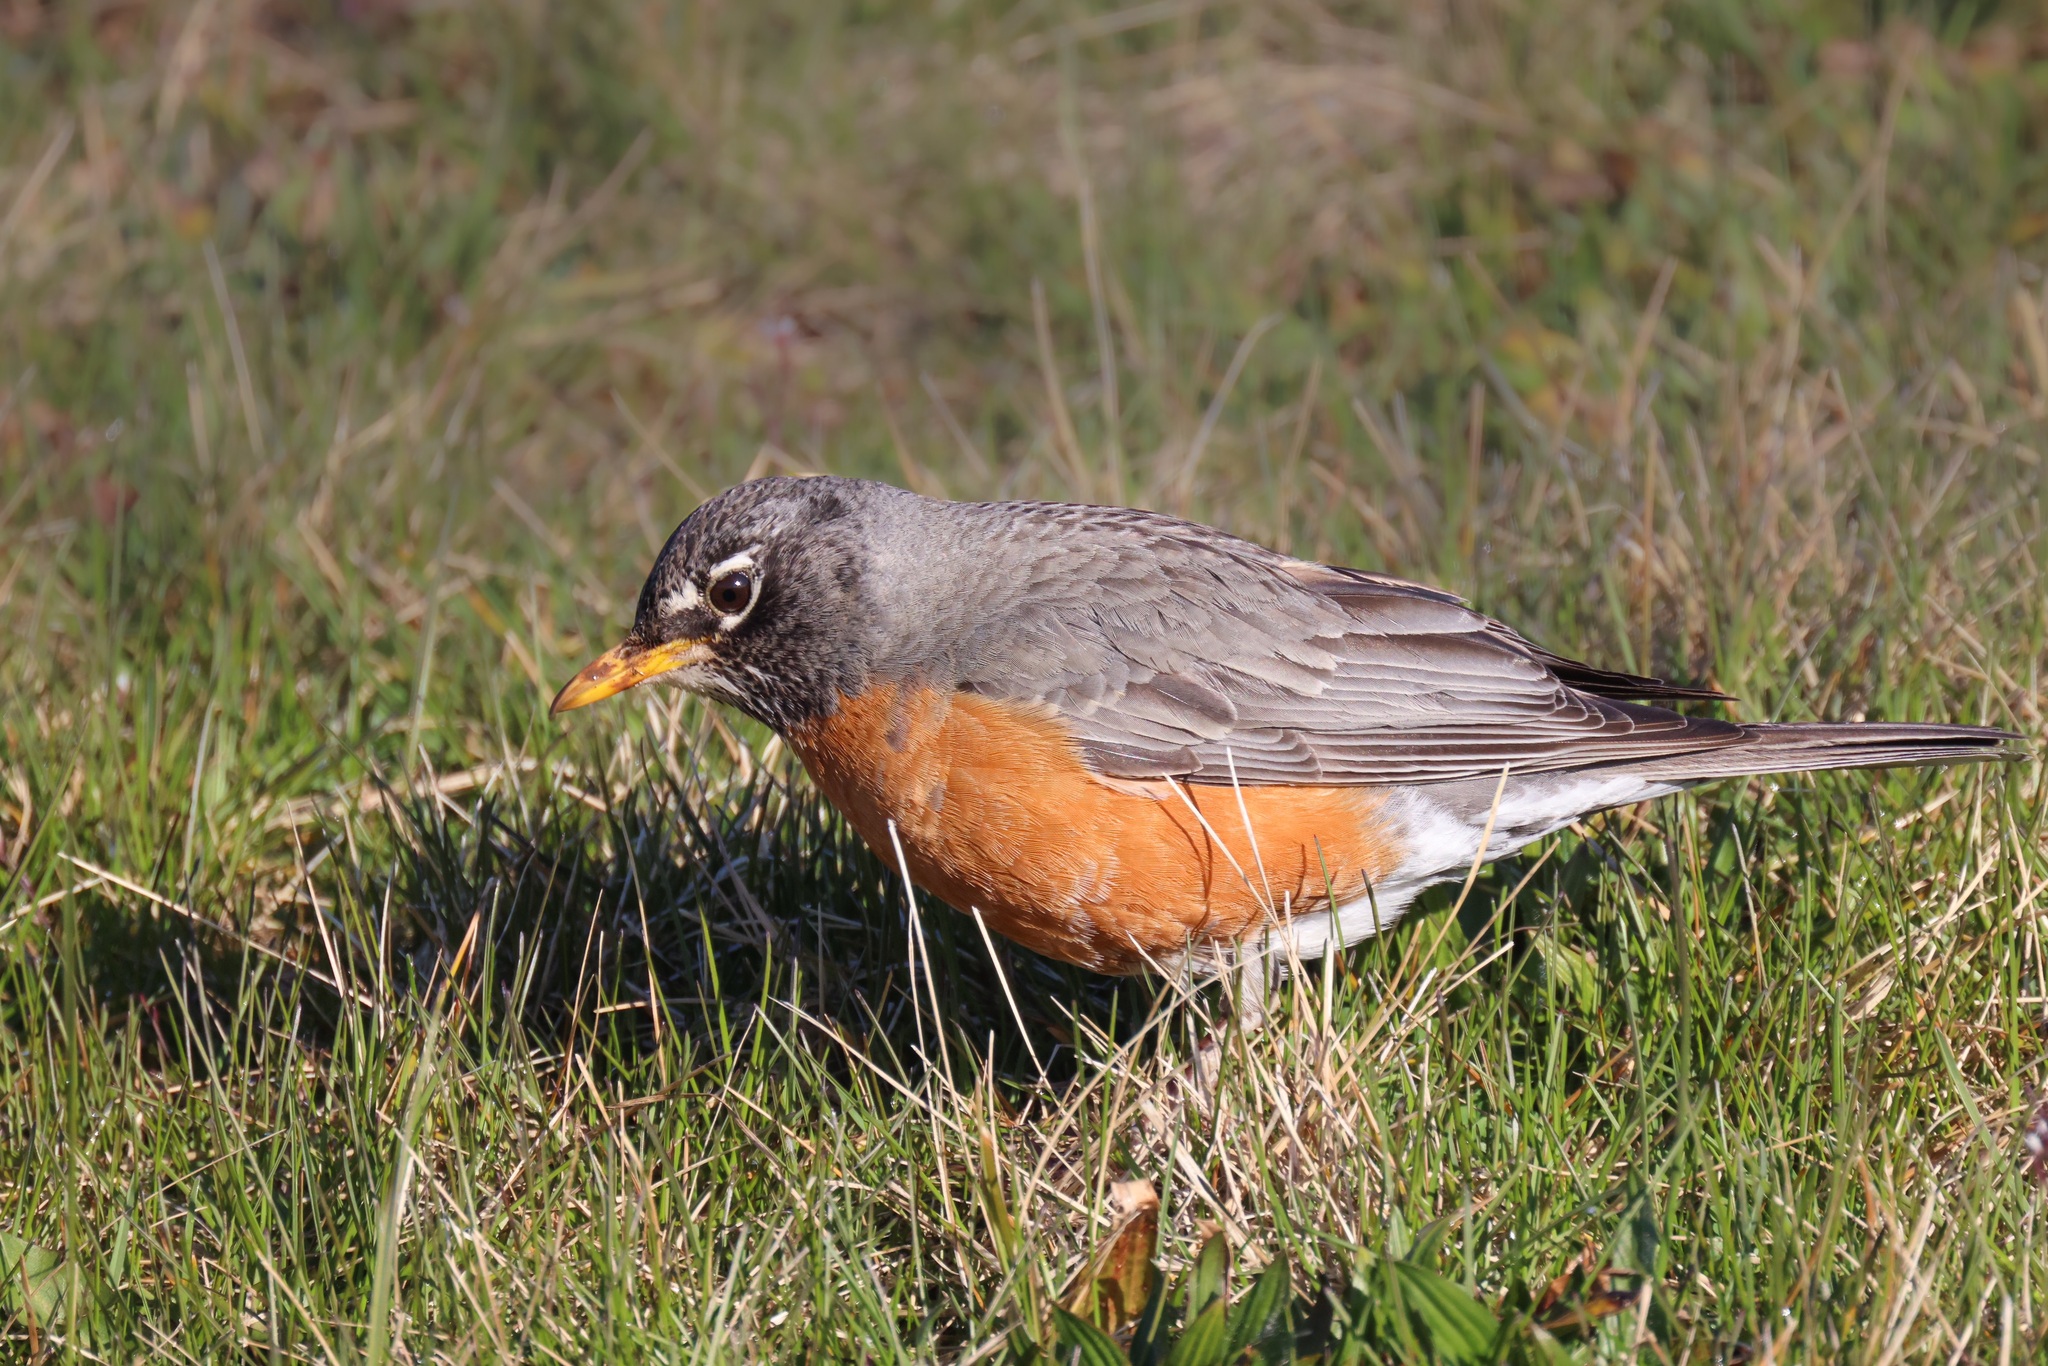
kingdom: Animalia
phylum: Chordata
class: Aves
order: Passeriformes
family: Turdidae
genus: Turdus
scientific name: Turdus migratorius
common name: American robin
